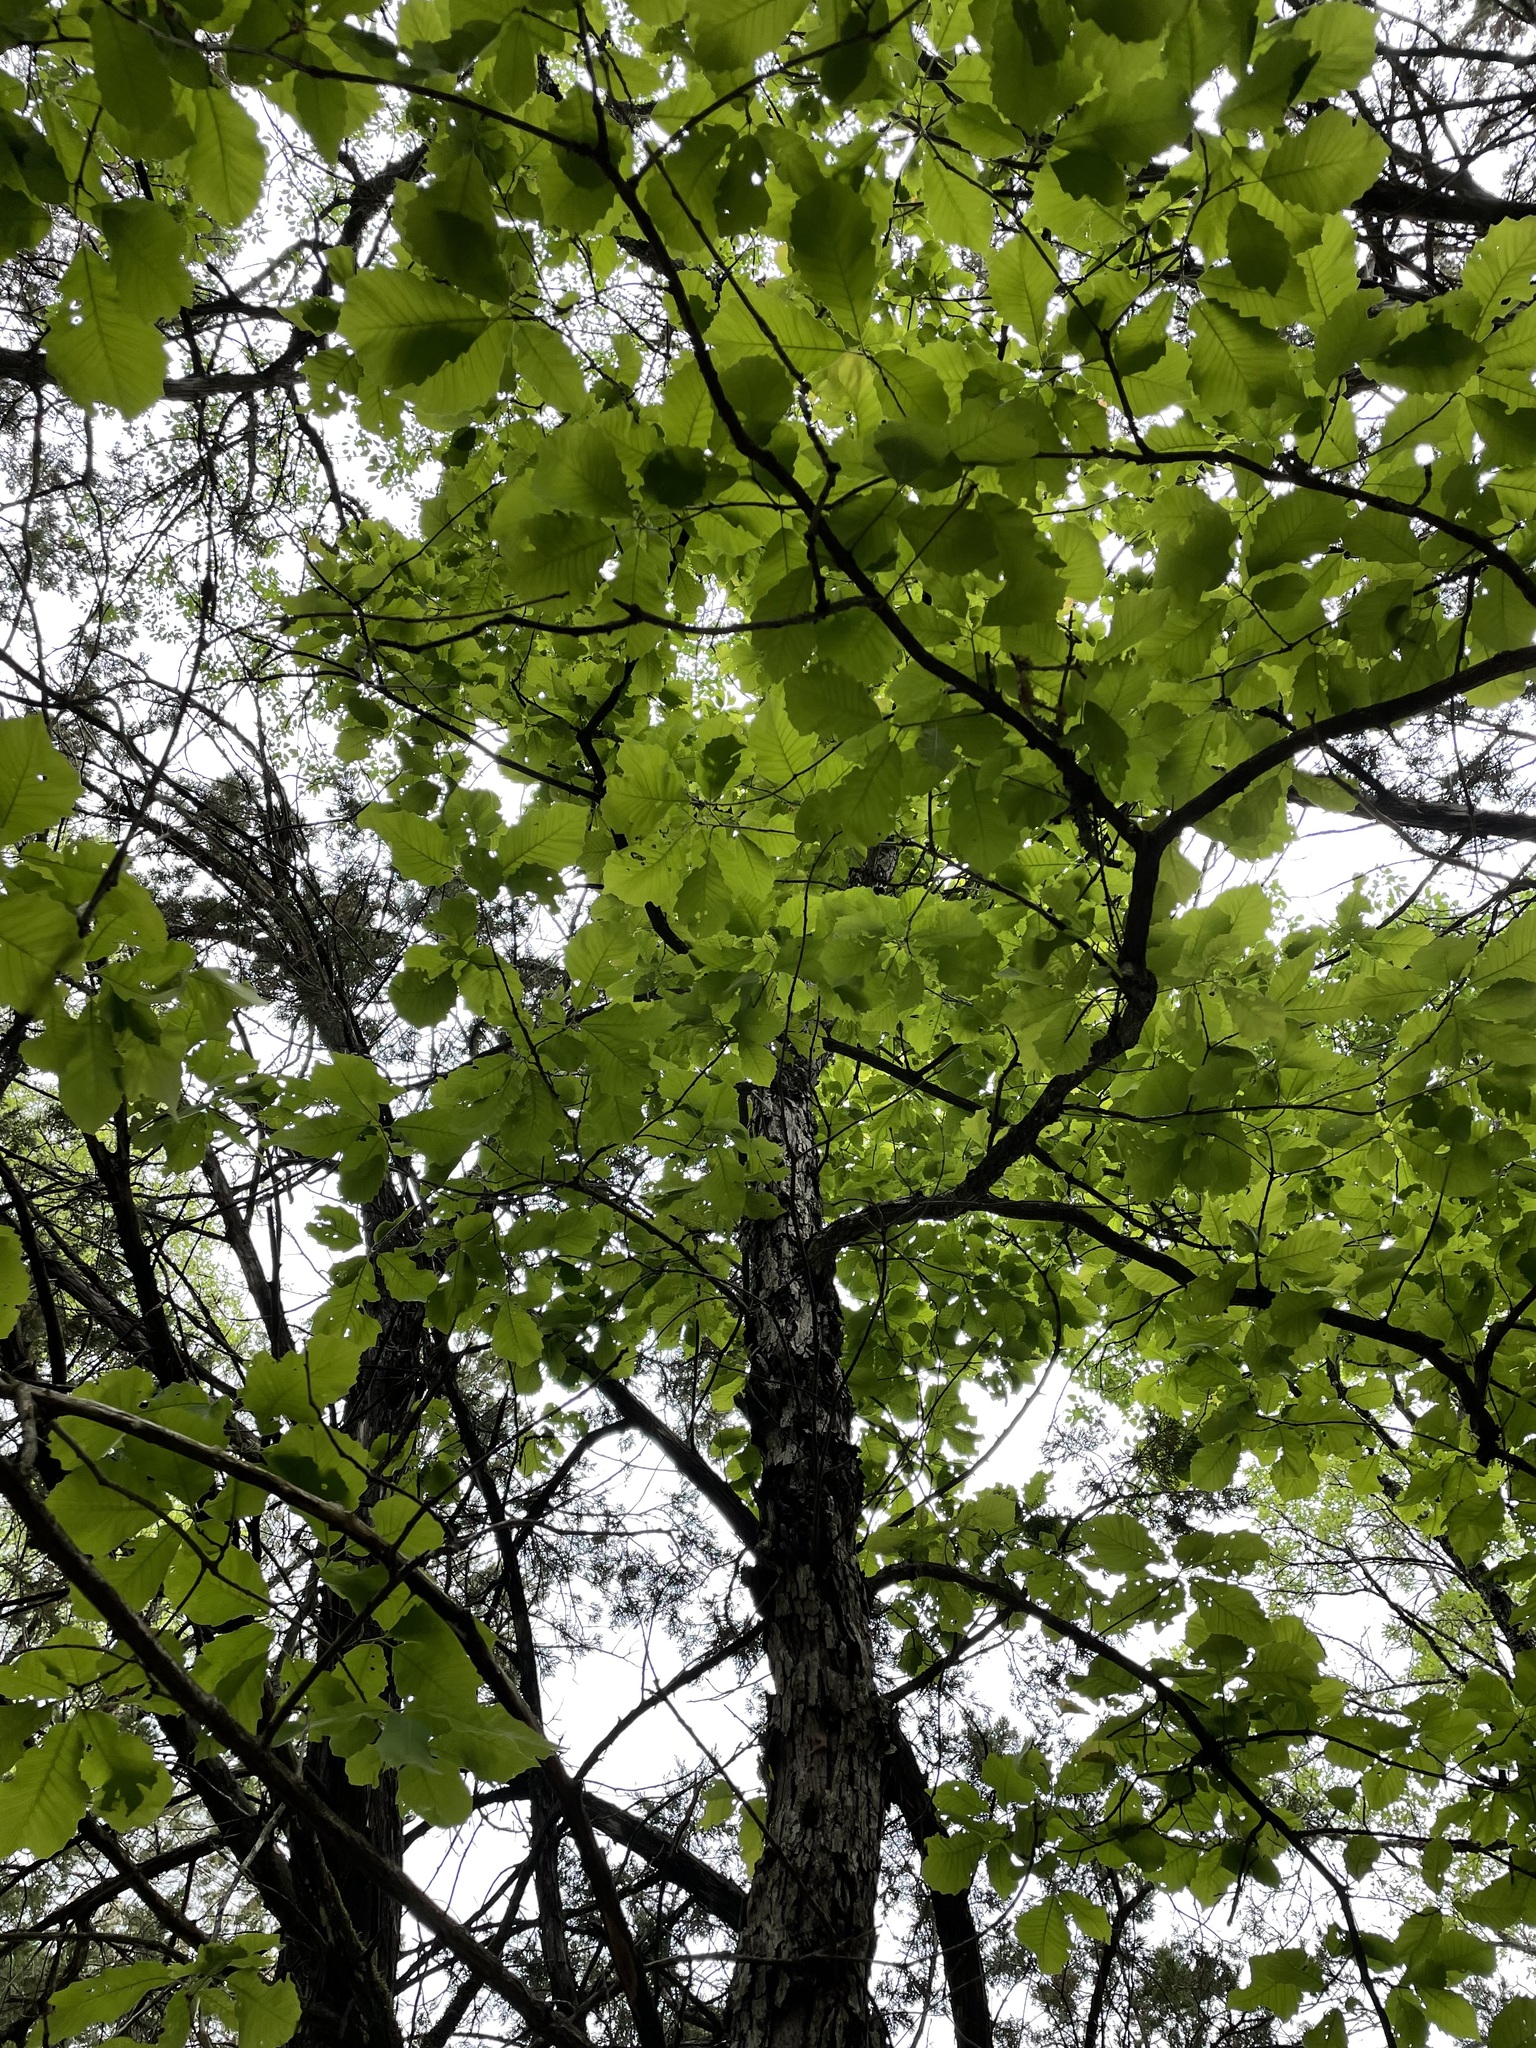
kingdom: Plantae
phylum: Tracheophyta
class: Magnoliopsida
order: Fagales
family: Fagaceae
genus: Quercus
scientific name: Quercus muehlenbergii
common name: Chinkapin oak
